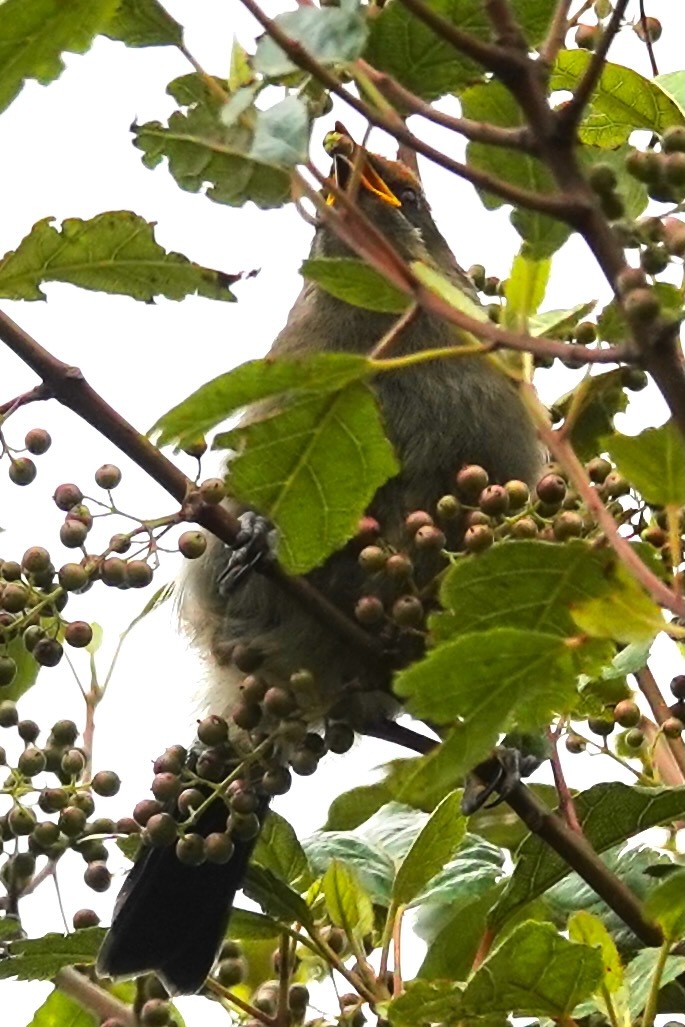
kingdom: Animalia
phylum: Chordata
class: Aves
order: Passeriformes
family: Meliphagidae
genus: Anthornis
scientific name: Anthornis melanura
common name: New zealand bellbird
